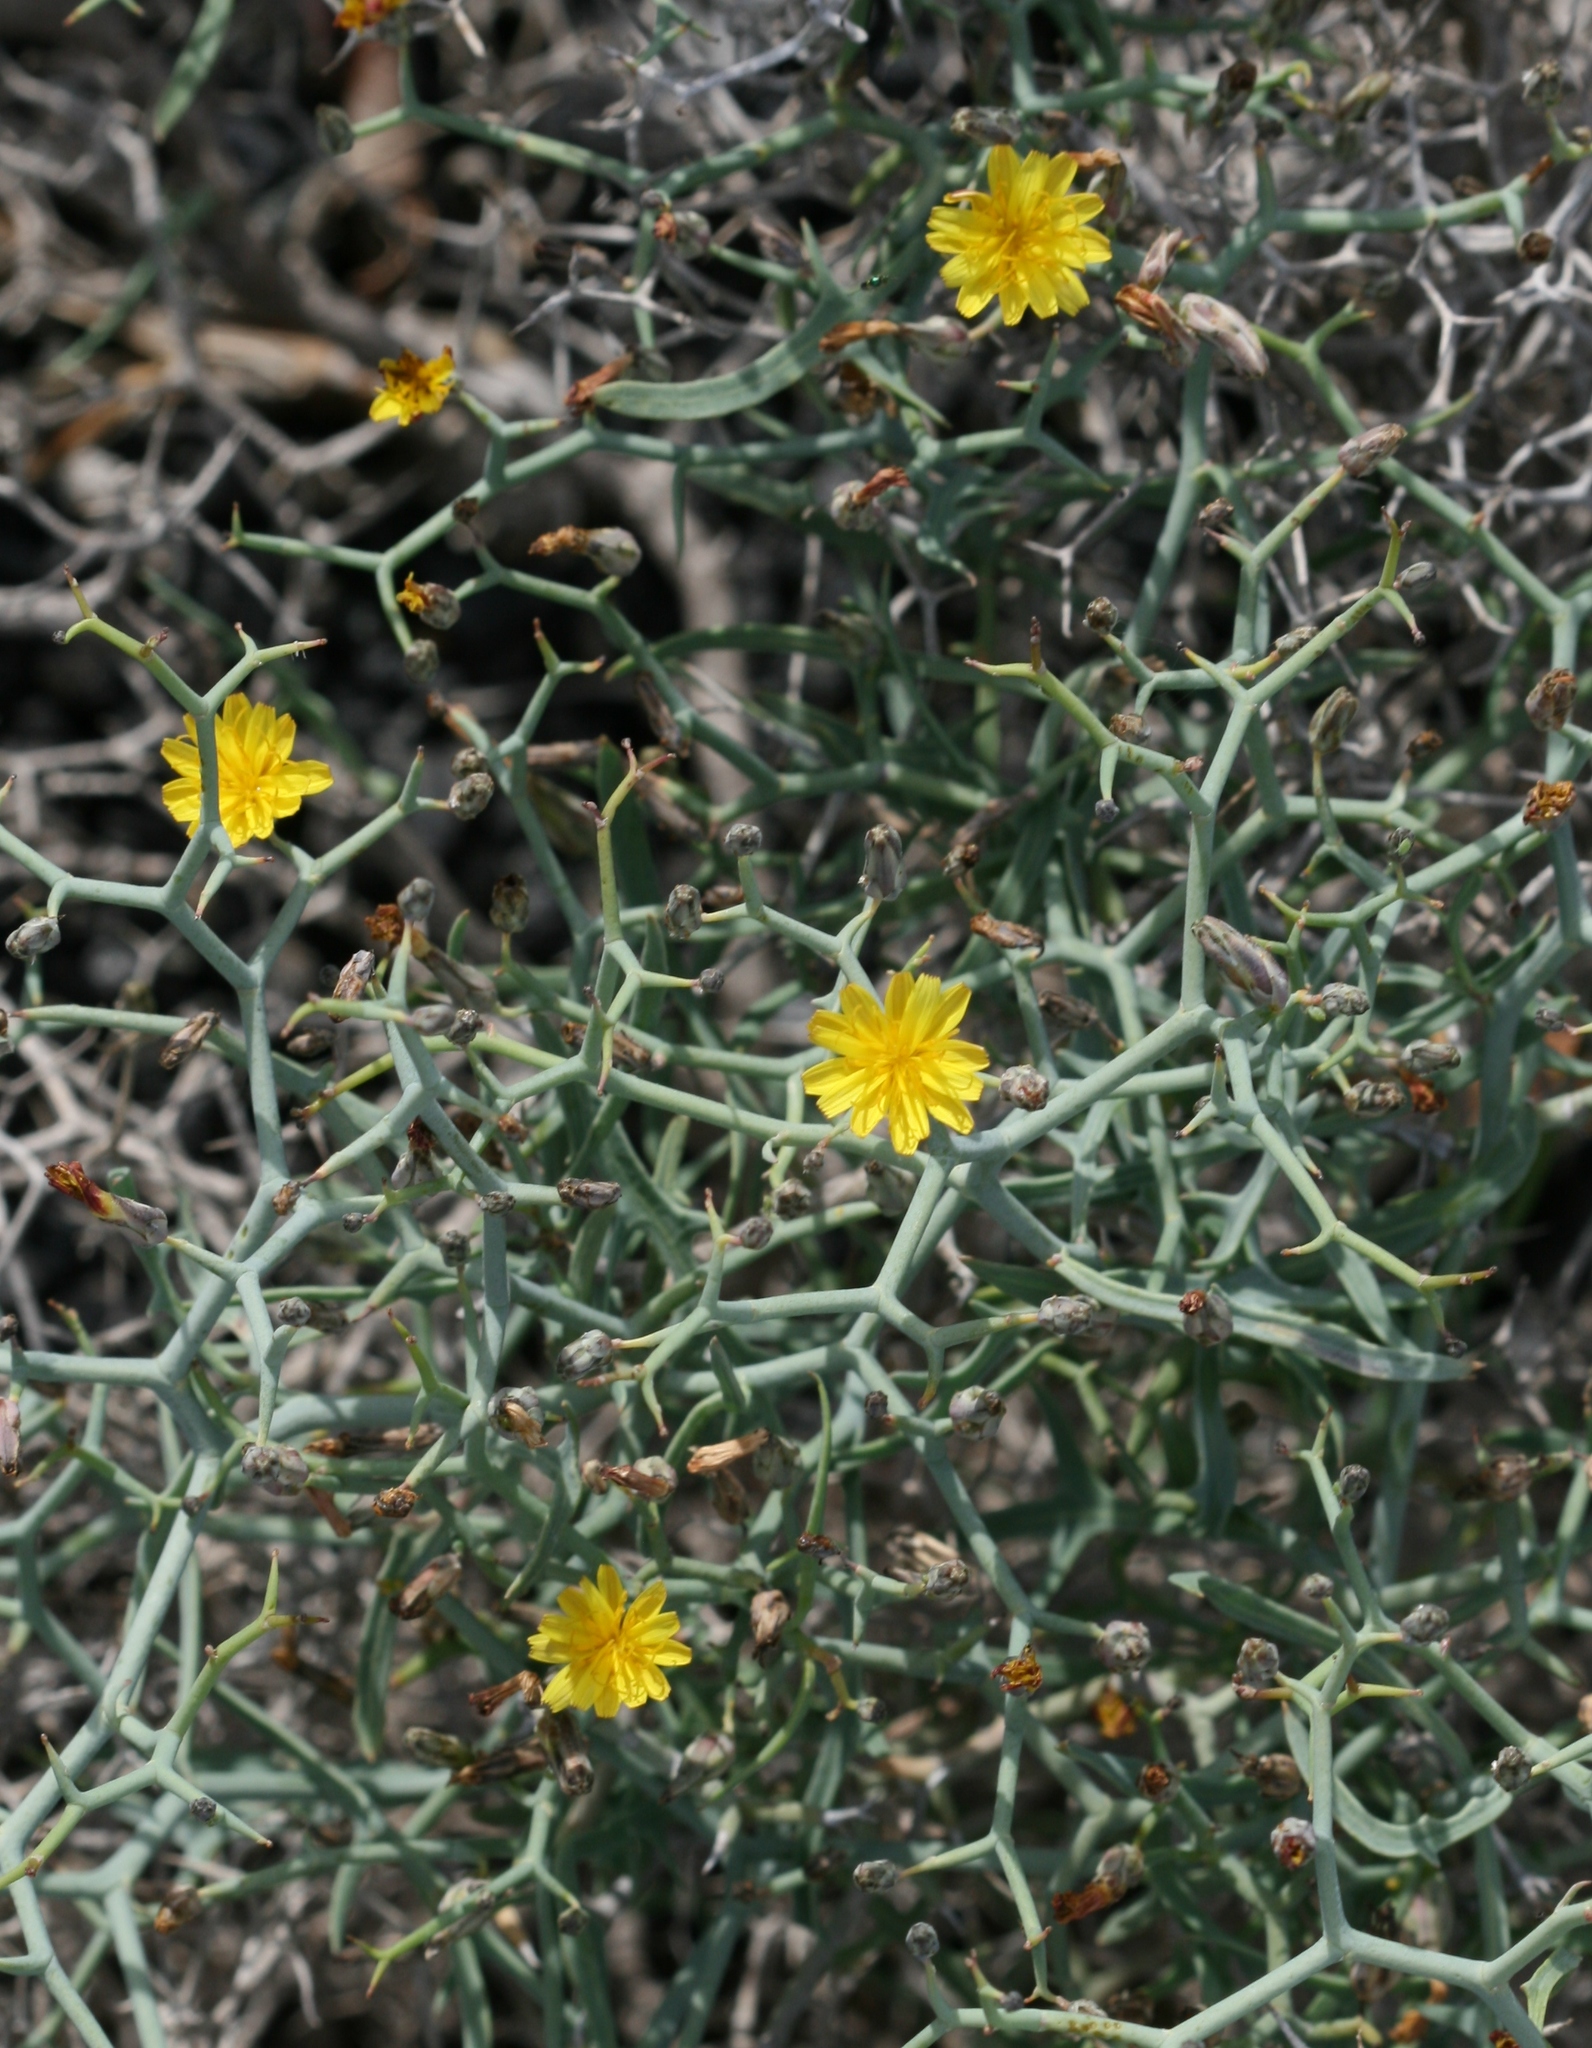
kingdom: Plantae
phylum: Tracheophyta
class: Magnoliopsida
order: Asterales
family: Asteraceae
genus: Launaea
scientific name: Launaea arborescens
